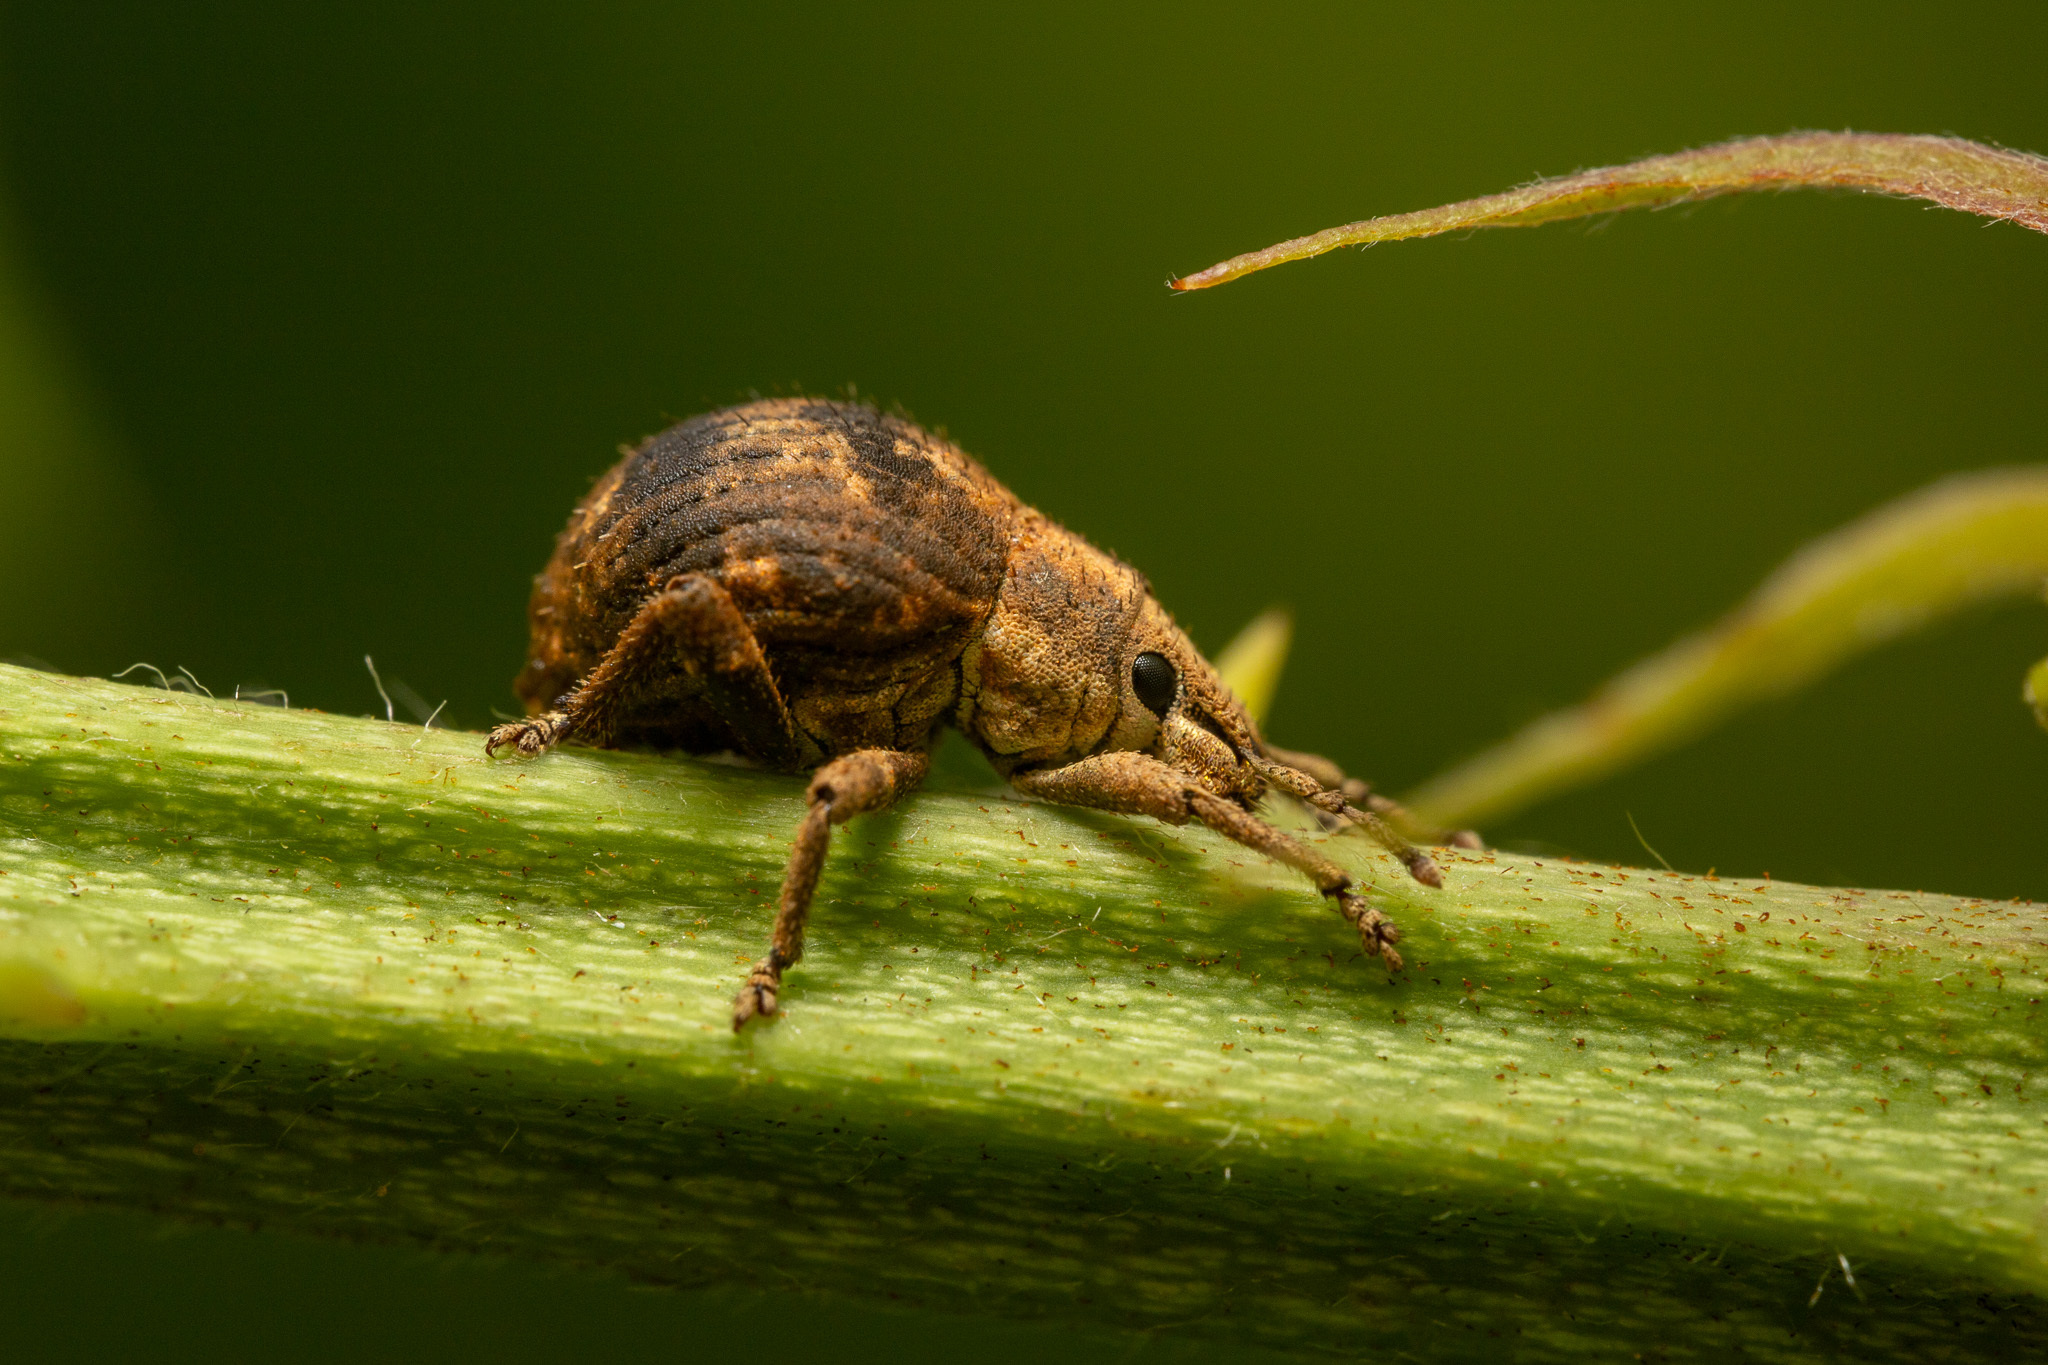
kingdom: Animalia
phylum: Arthropoda
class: Insecta
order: Coleoptera
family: Curculionidae
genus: Pseudocneorhinus
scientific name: Pseudocneorhinus bifasciatus
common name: Two-banded japanese weevil
